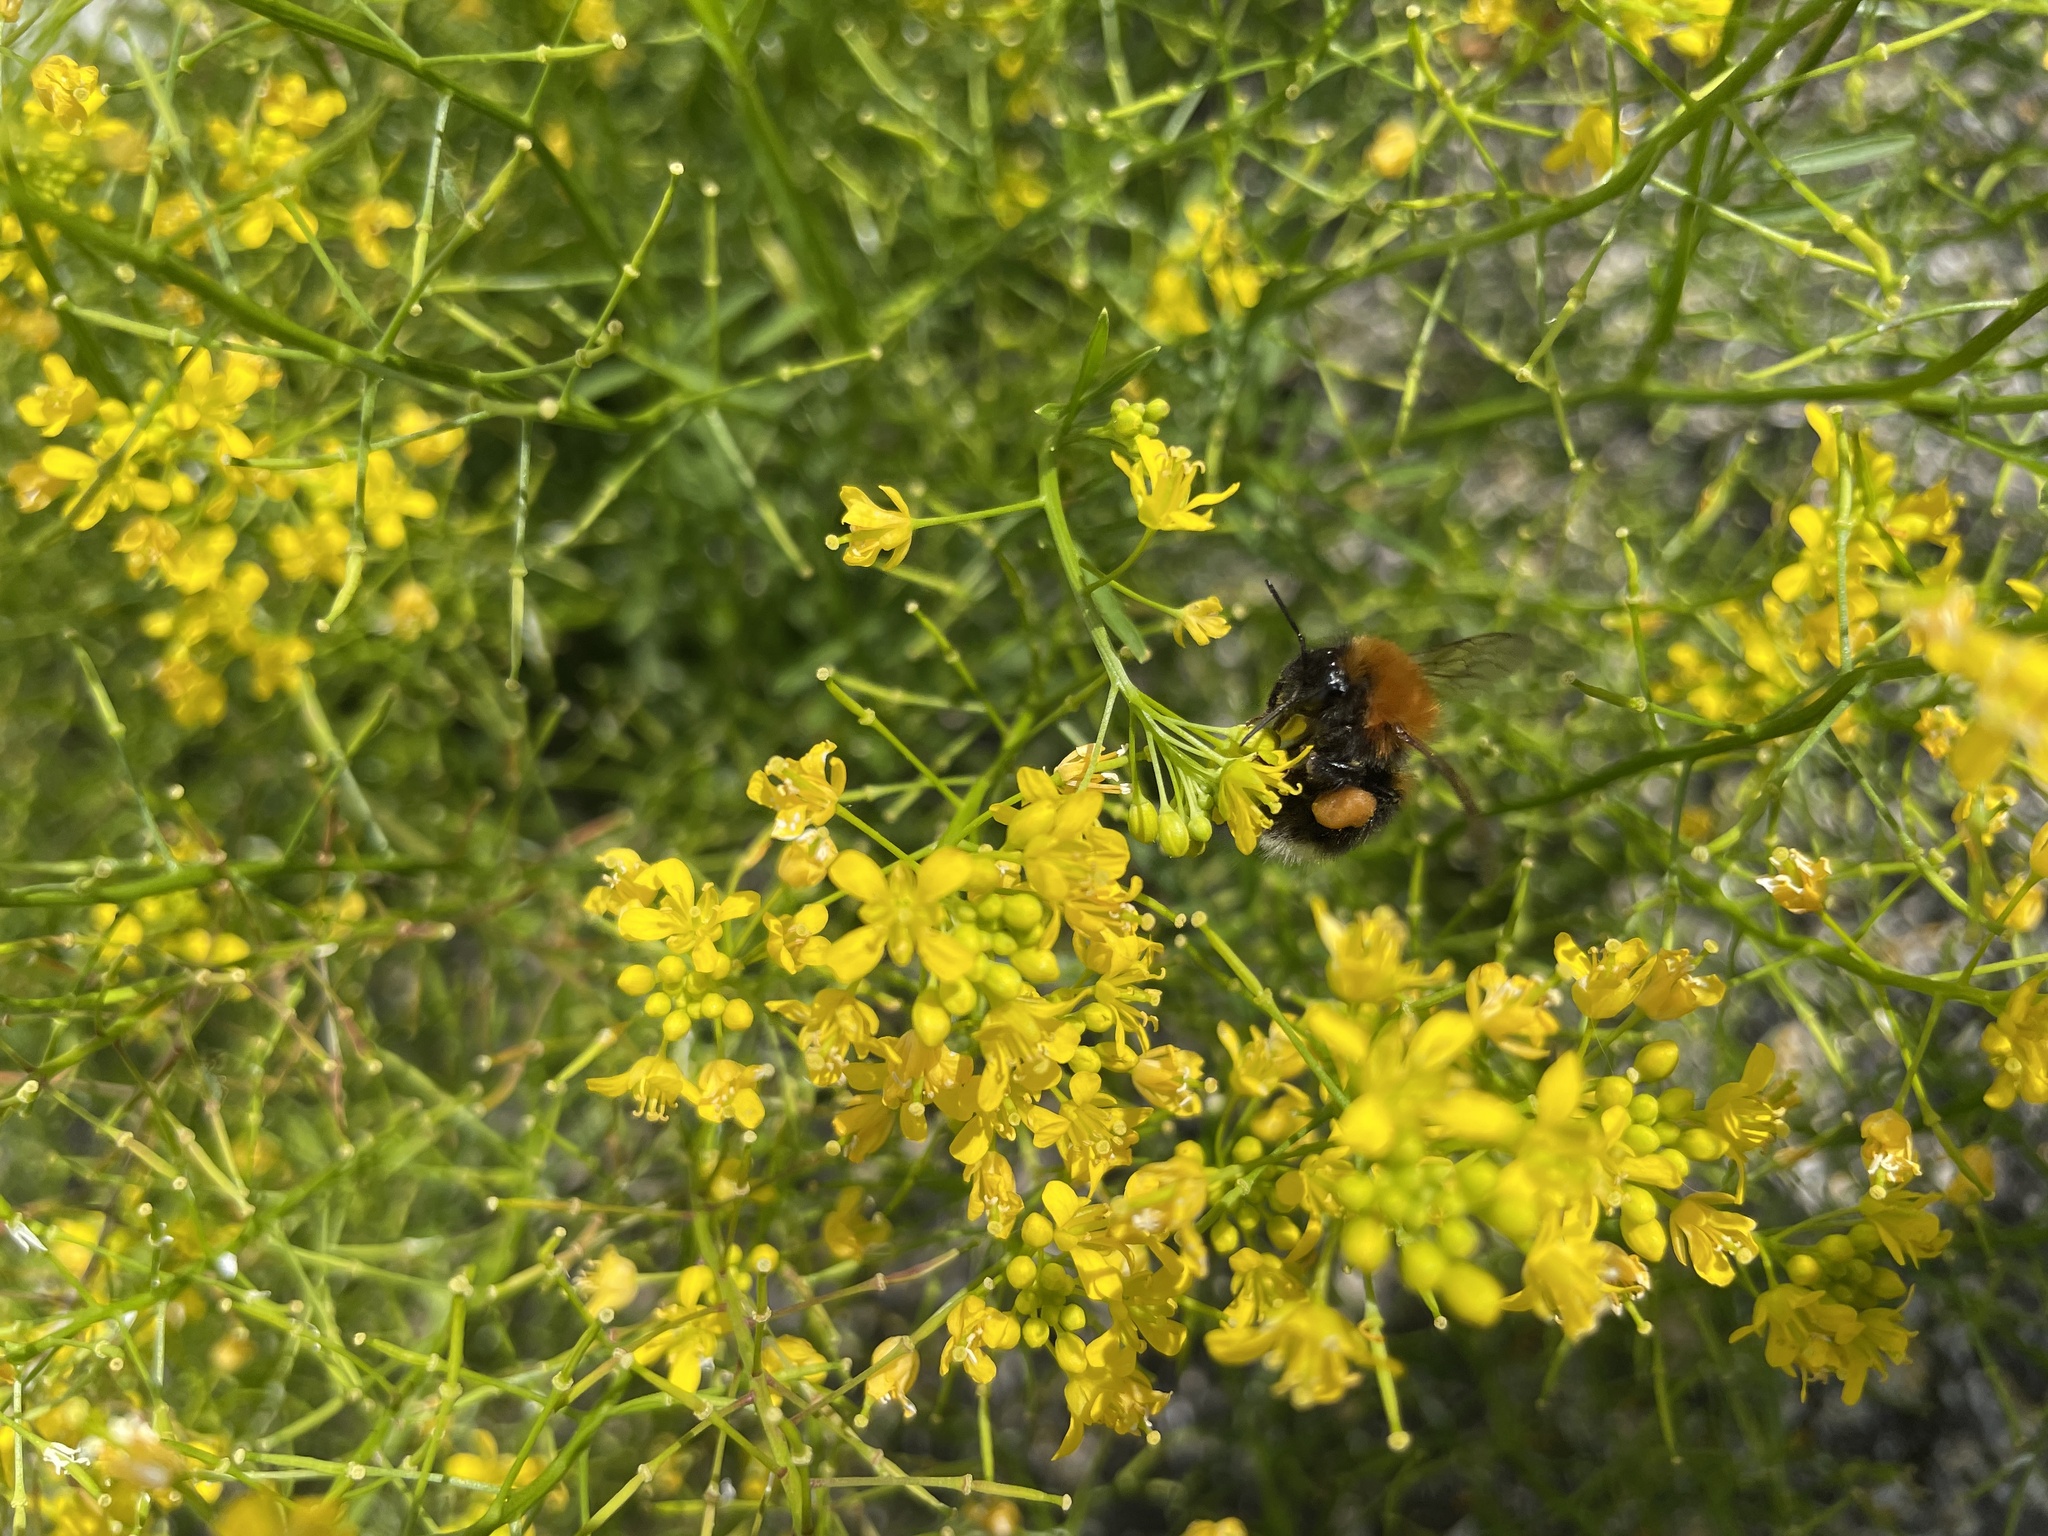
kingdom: Animalia
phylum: Arthropoda
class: Insecta
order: Hymenoptera
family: Apidae
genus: Bombus
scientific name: Bombus hypnorum
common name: New garden bumblebee
